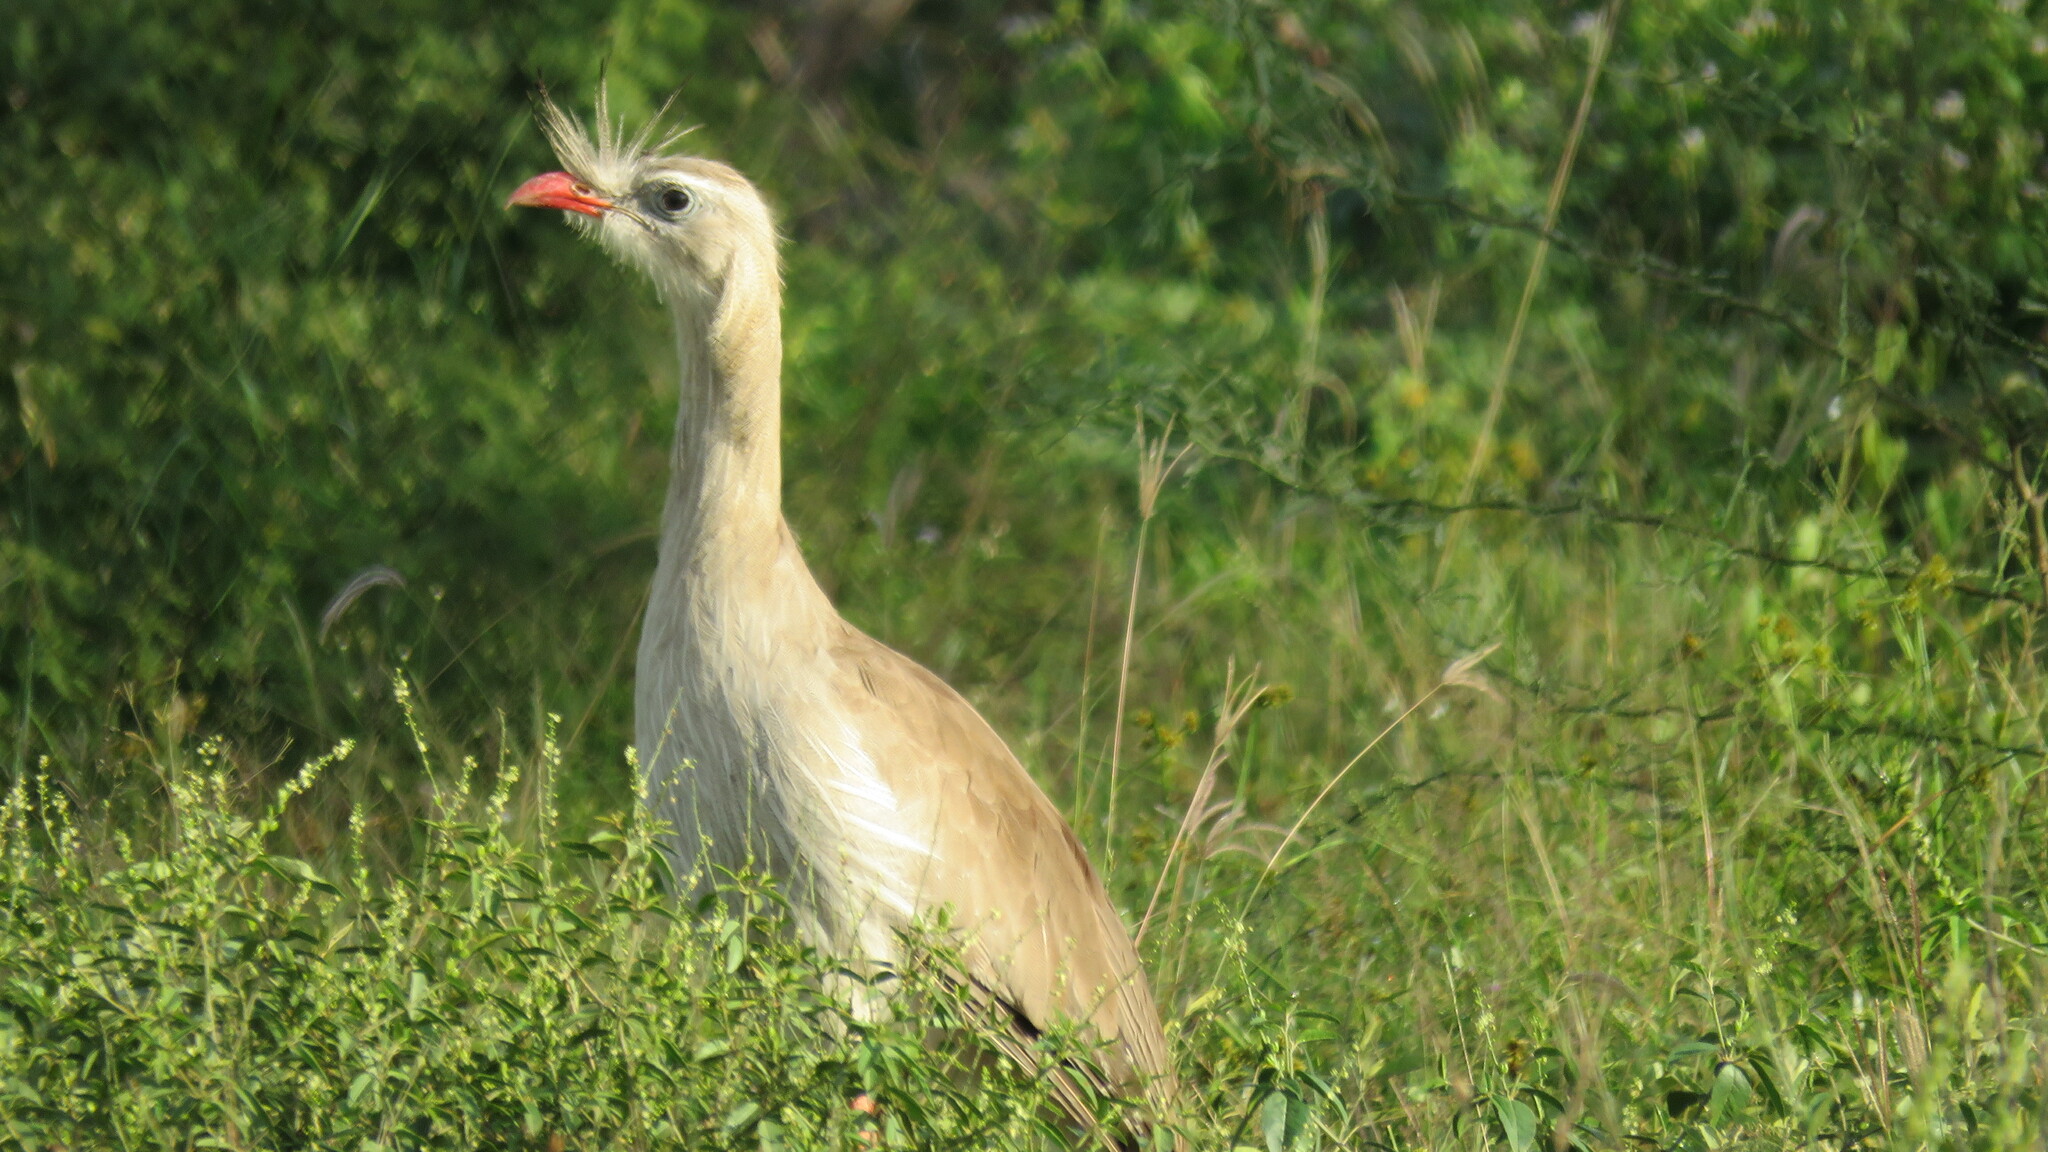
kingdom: Animalia
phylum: Chordata
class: Aves
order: Cariamiformes
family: Cariamidae
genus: Cariama
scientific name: Cariama cristata
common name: Red-legged seriema
